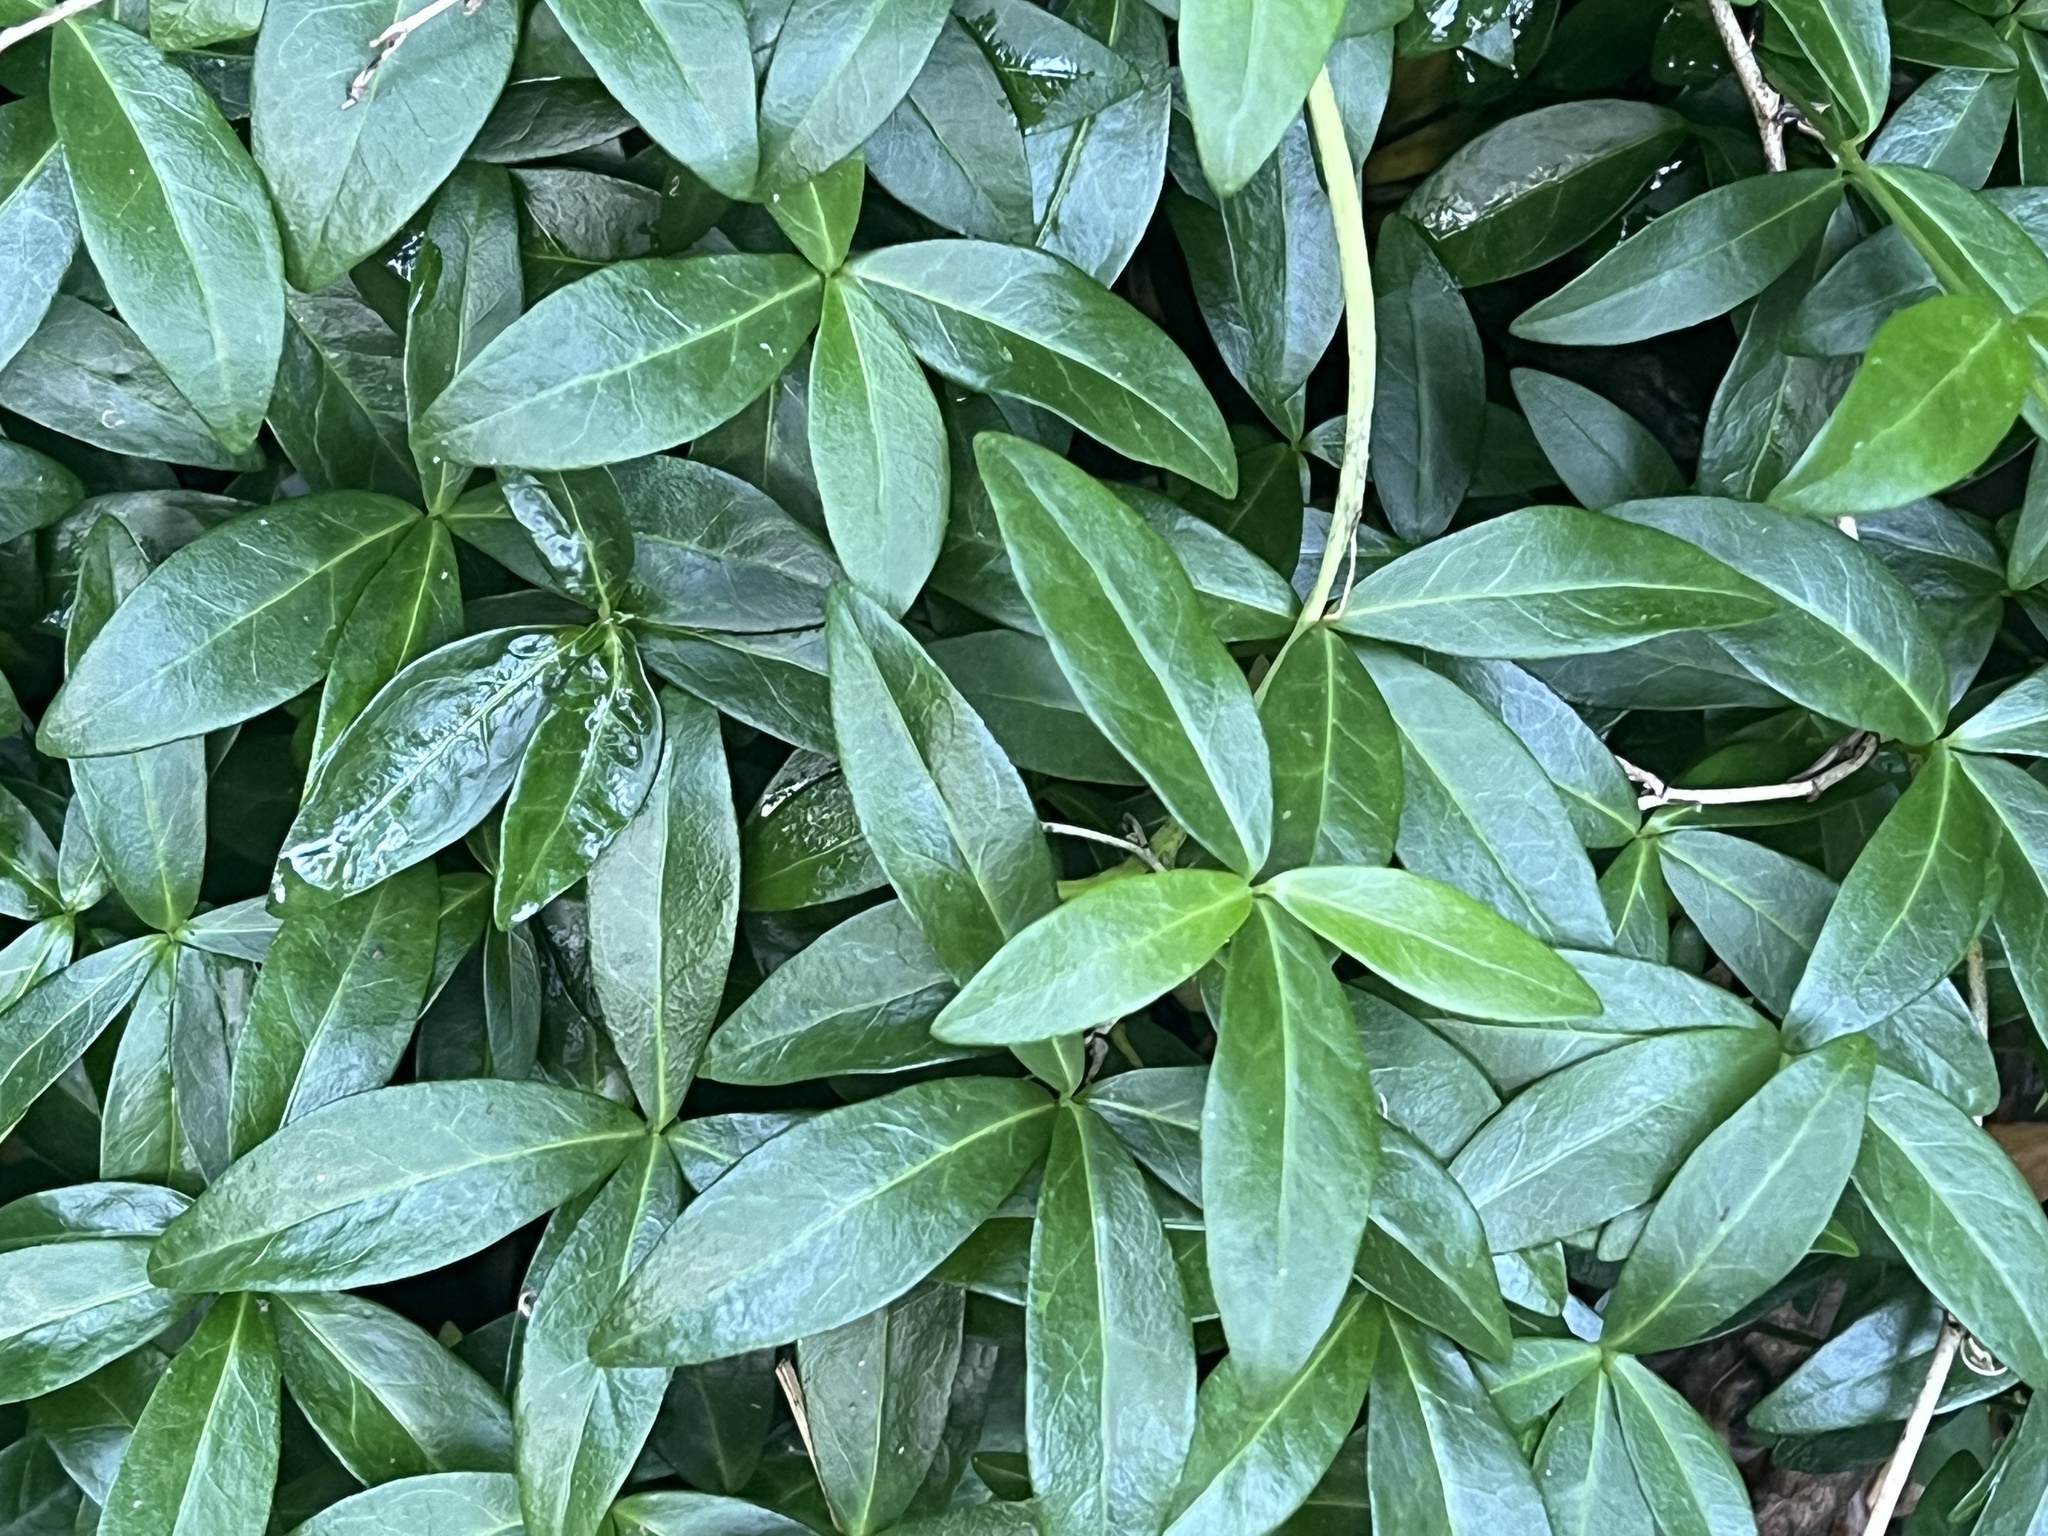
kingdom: Plantae
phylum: Tracheophyta
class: Magnoliopsida
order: Gentianales
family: Apocynaceae
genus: Vinca
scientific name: Vinca minor
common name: Lesser periwinkle
